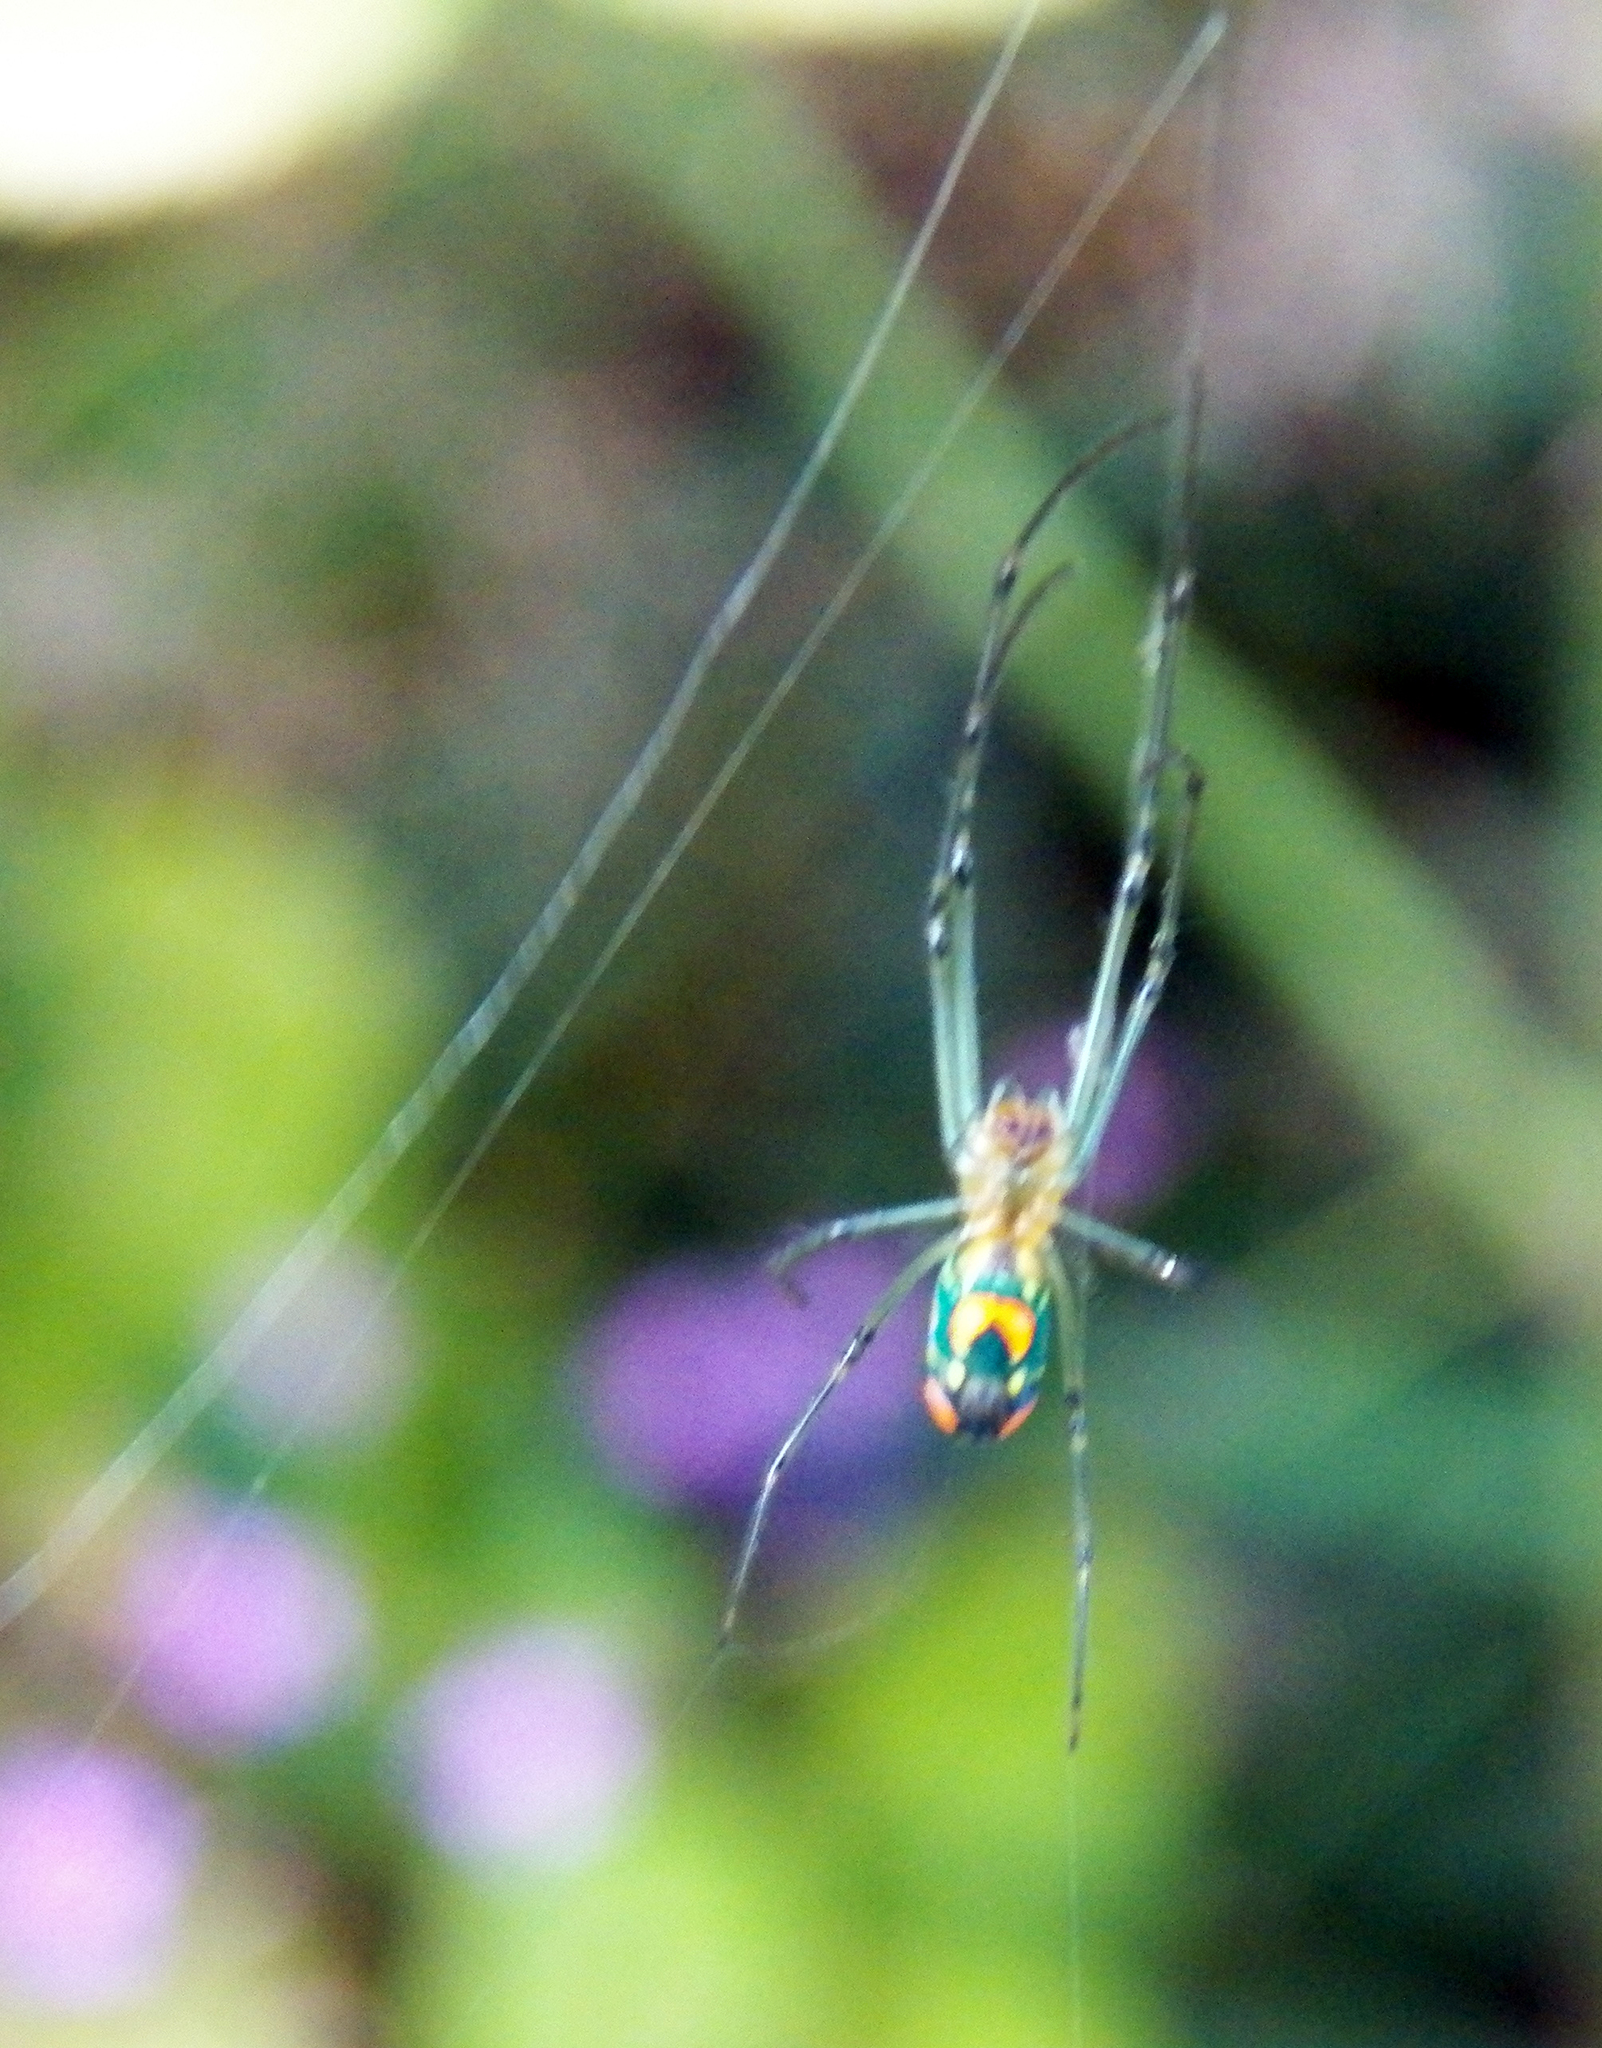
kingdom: Animalia
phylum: Arthropoda
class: Arachnida
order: Araneae
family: Tetragnathidae
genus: Leucauge
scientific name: Leucauge argyrobapta
